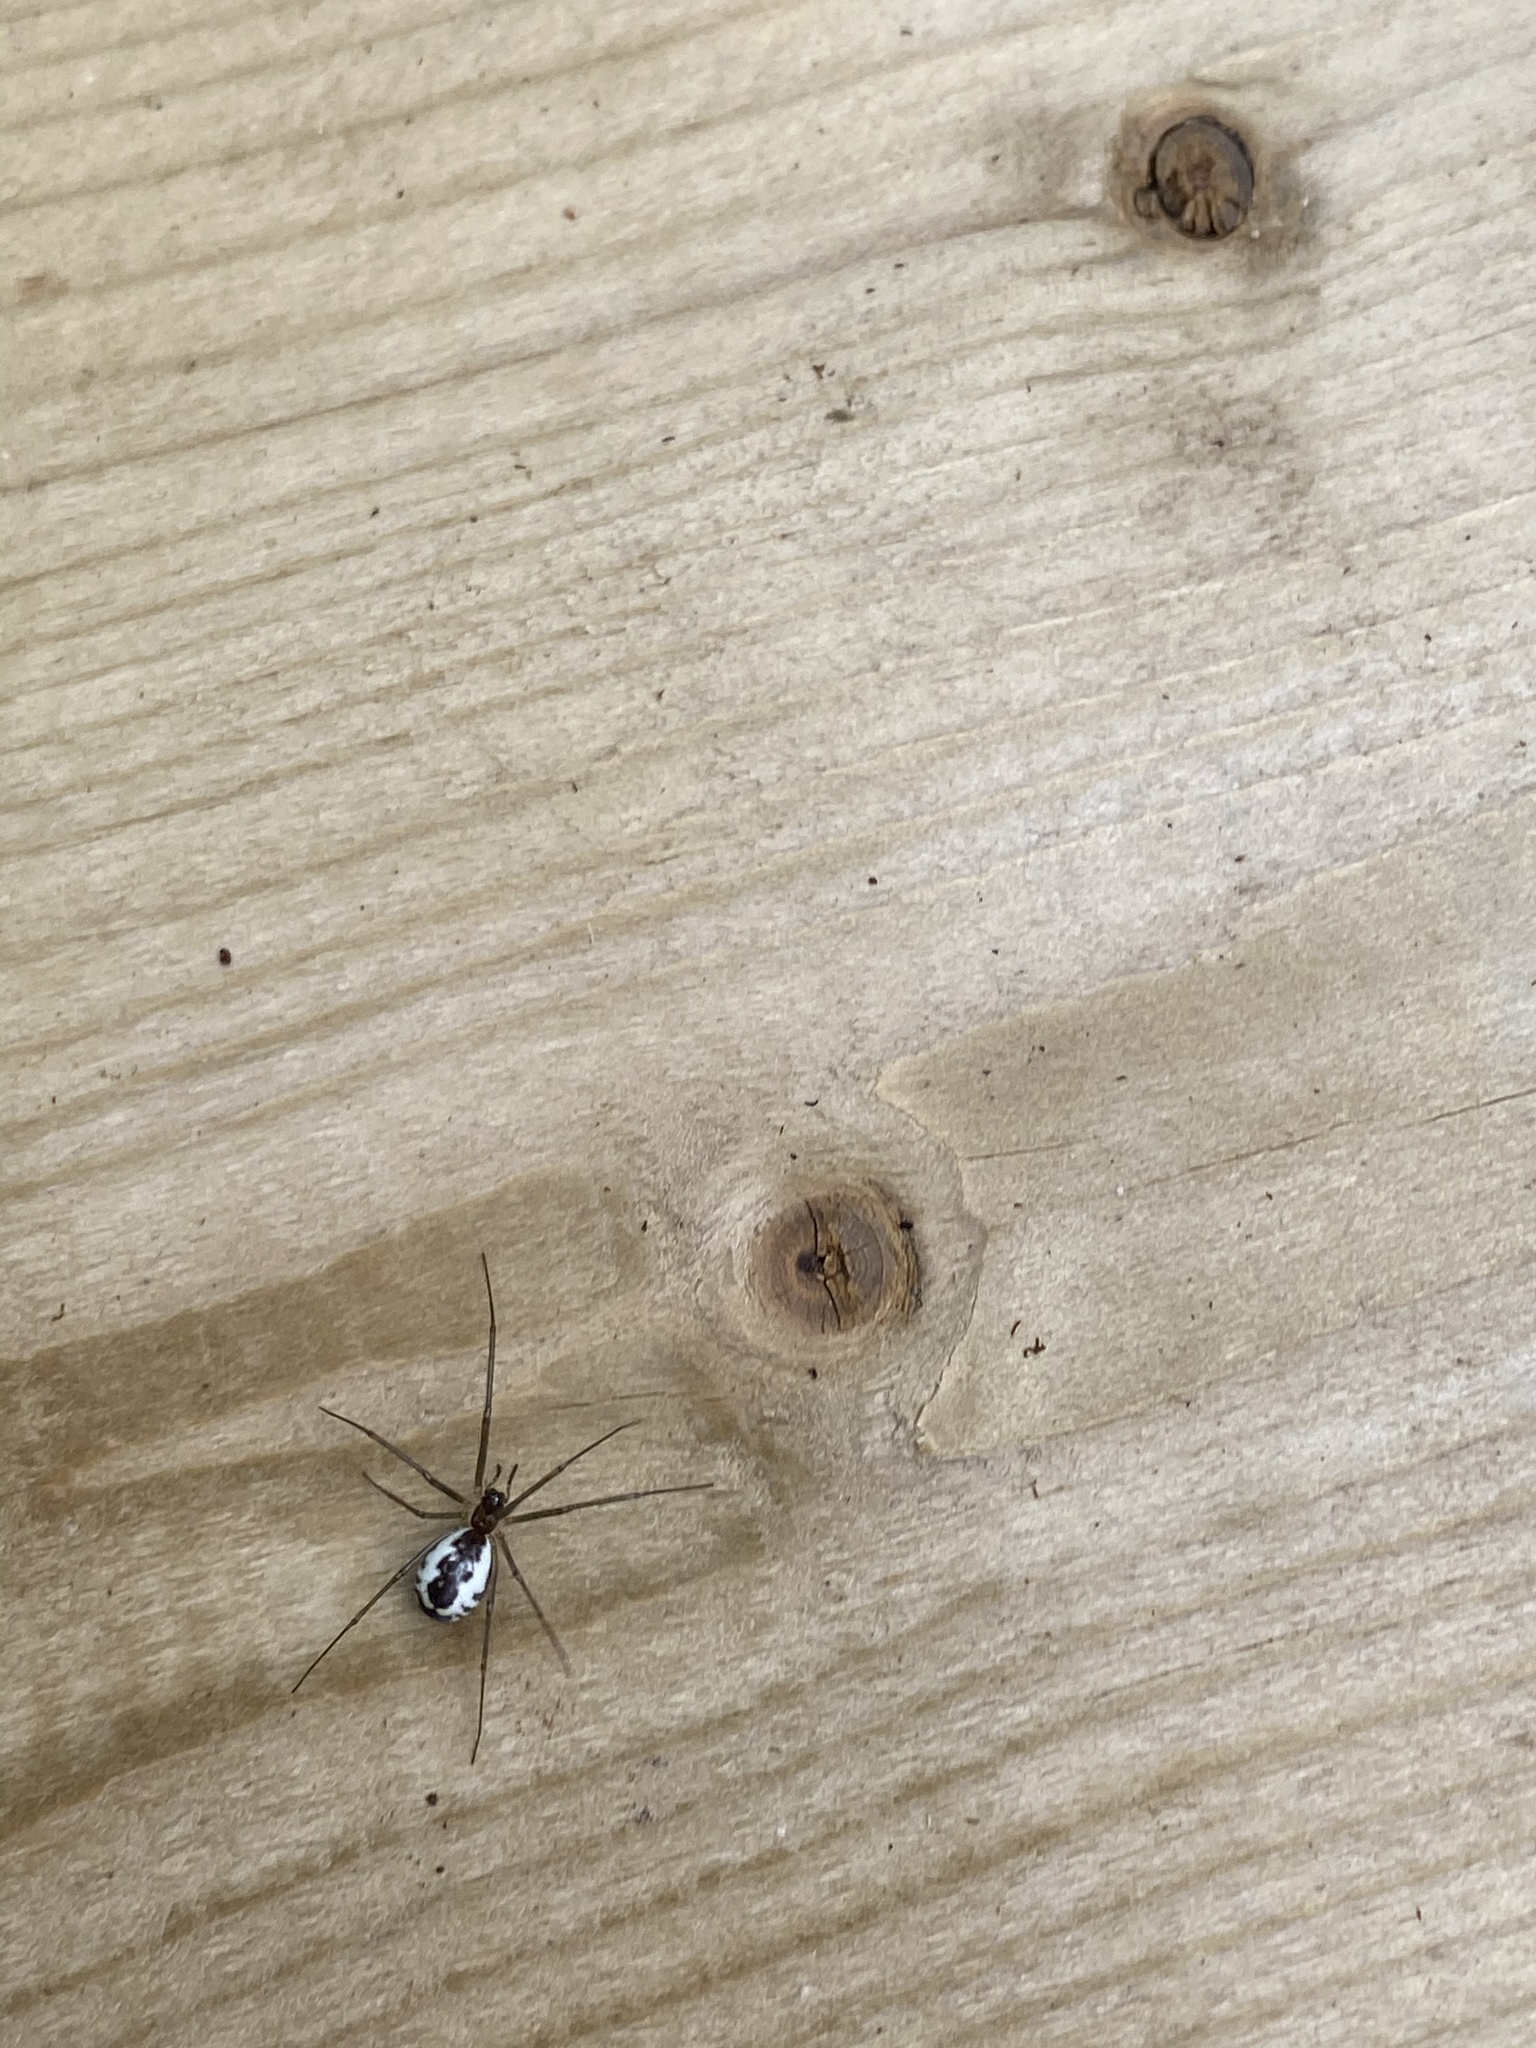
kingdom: Animalia
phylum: Arthropoda
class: Arachnida
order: Araneae
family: Linyphiidae
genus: Neriene
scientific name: Neriene radiata
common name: Filmy dome spider
